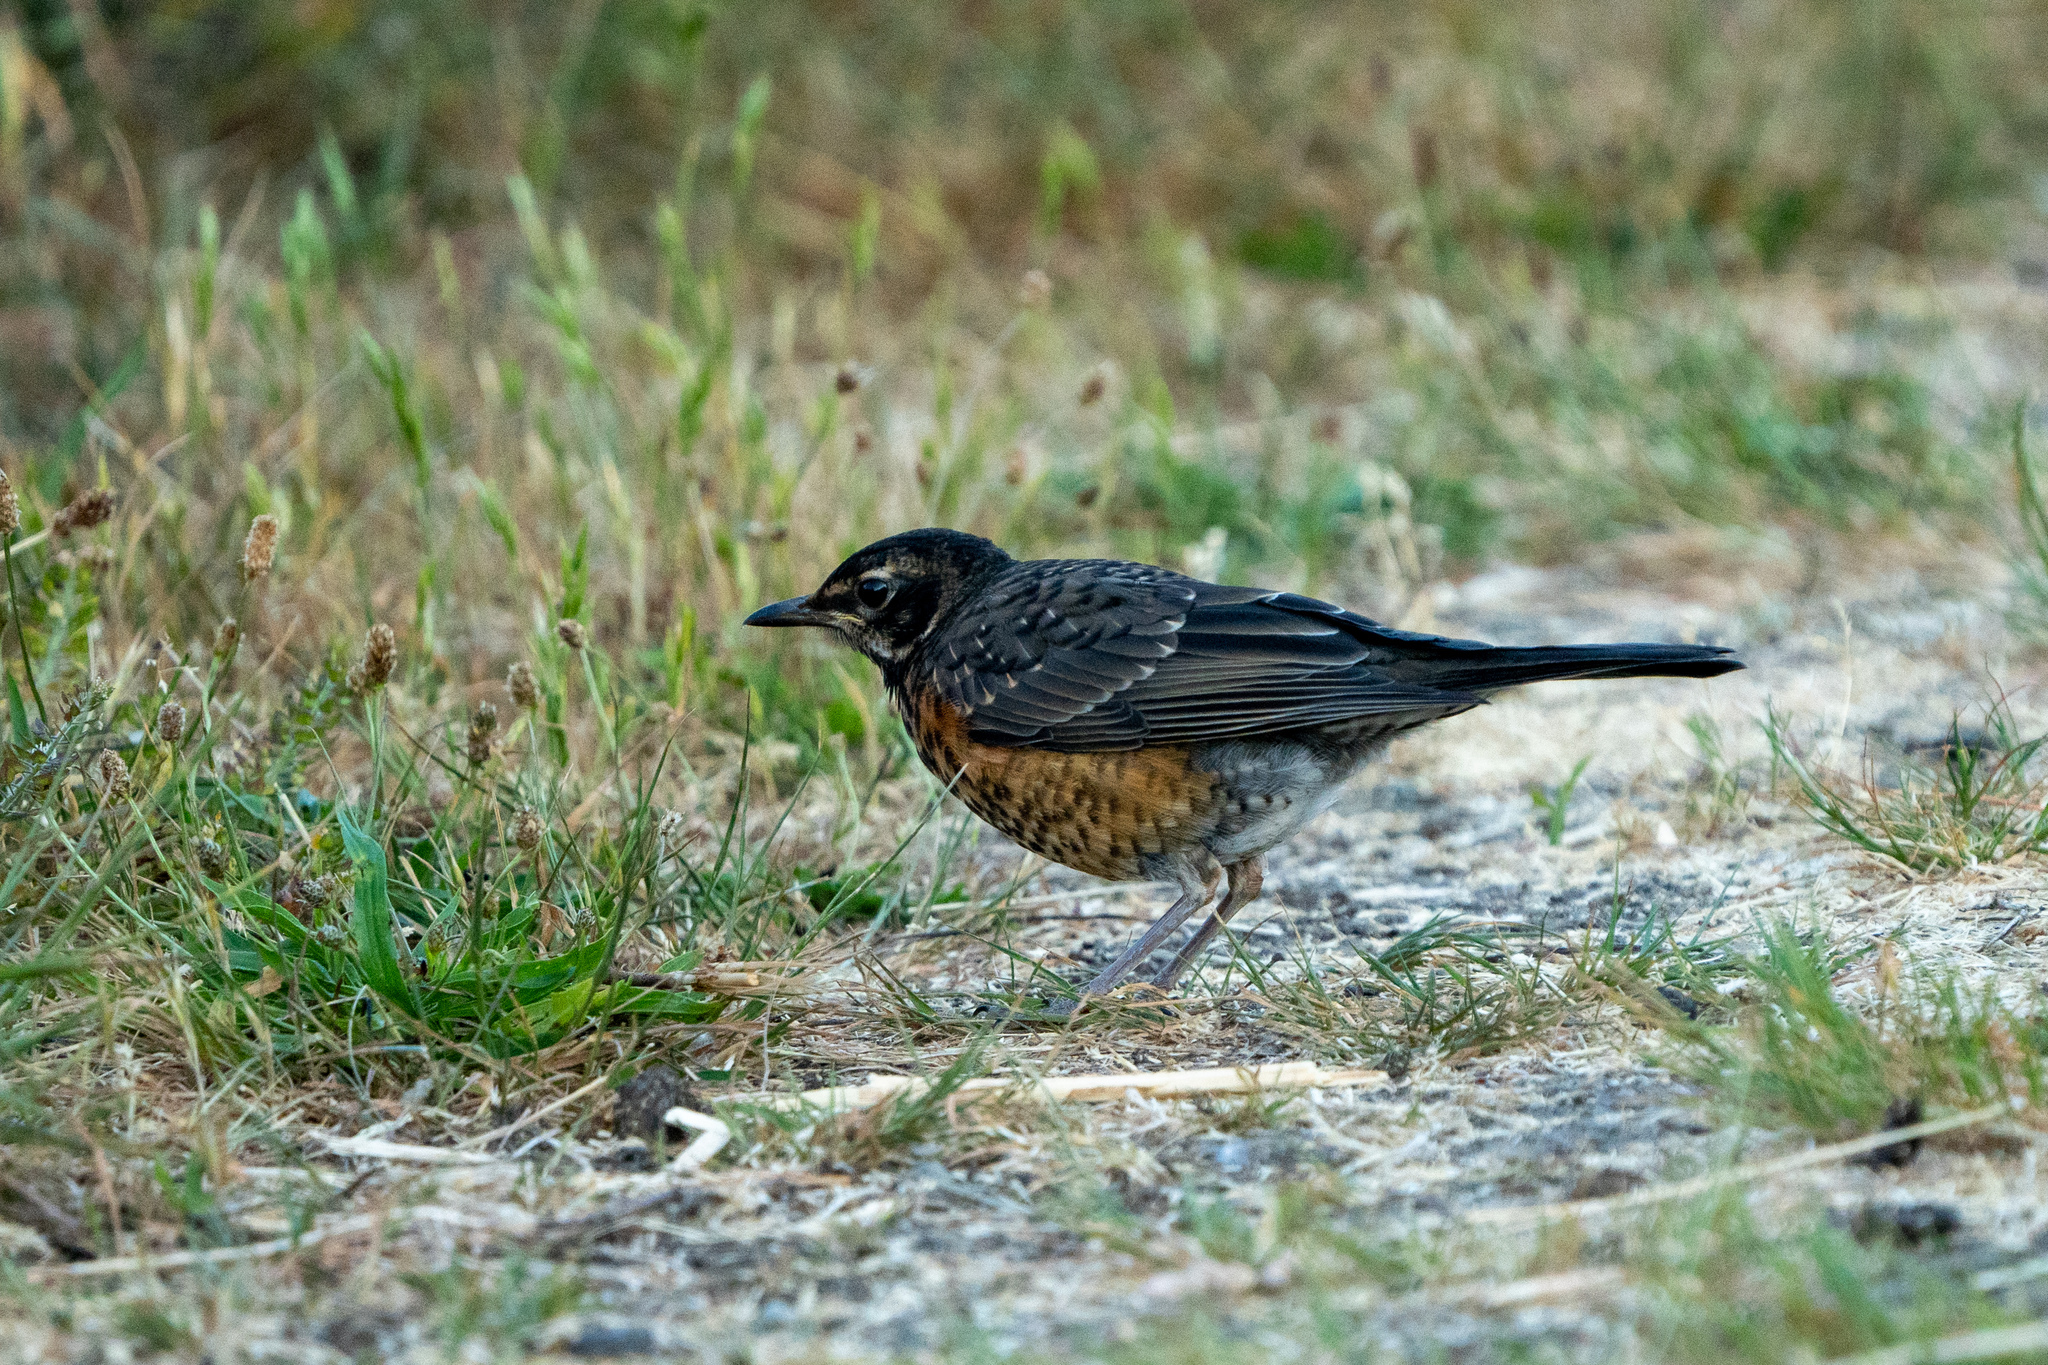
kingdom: Animalia
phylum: Chordata
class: Aves
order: Passeriformes
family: Turdidae
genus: Turdus
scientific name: Turdus migratorius
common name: American robin
